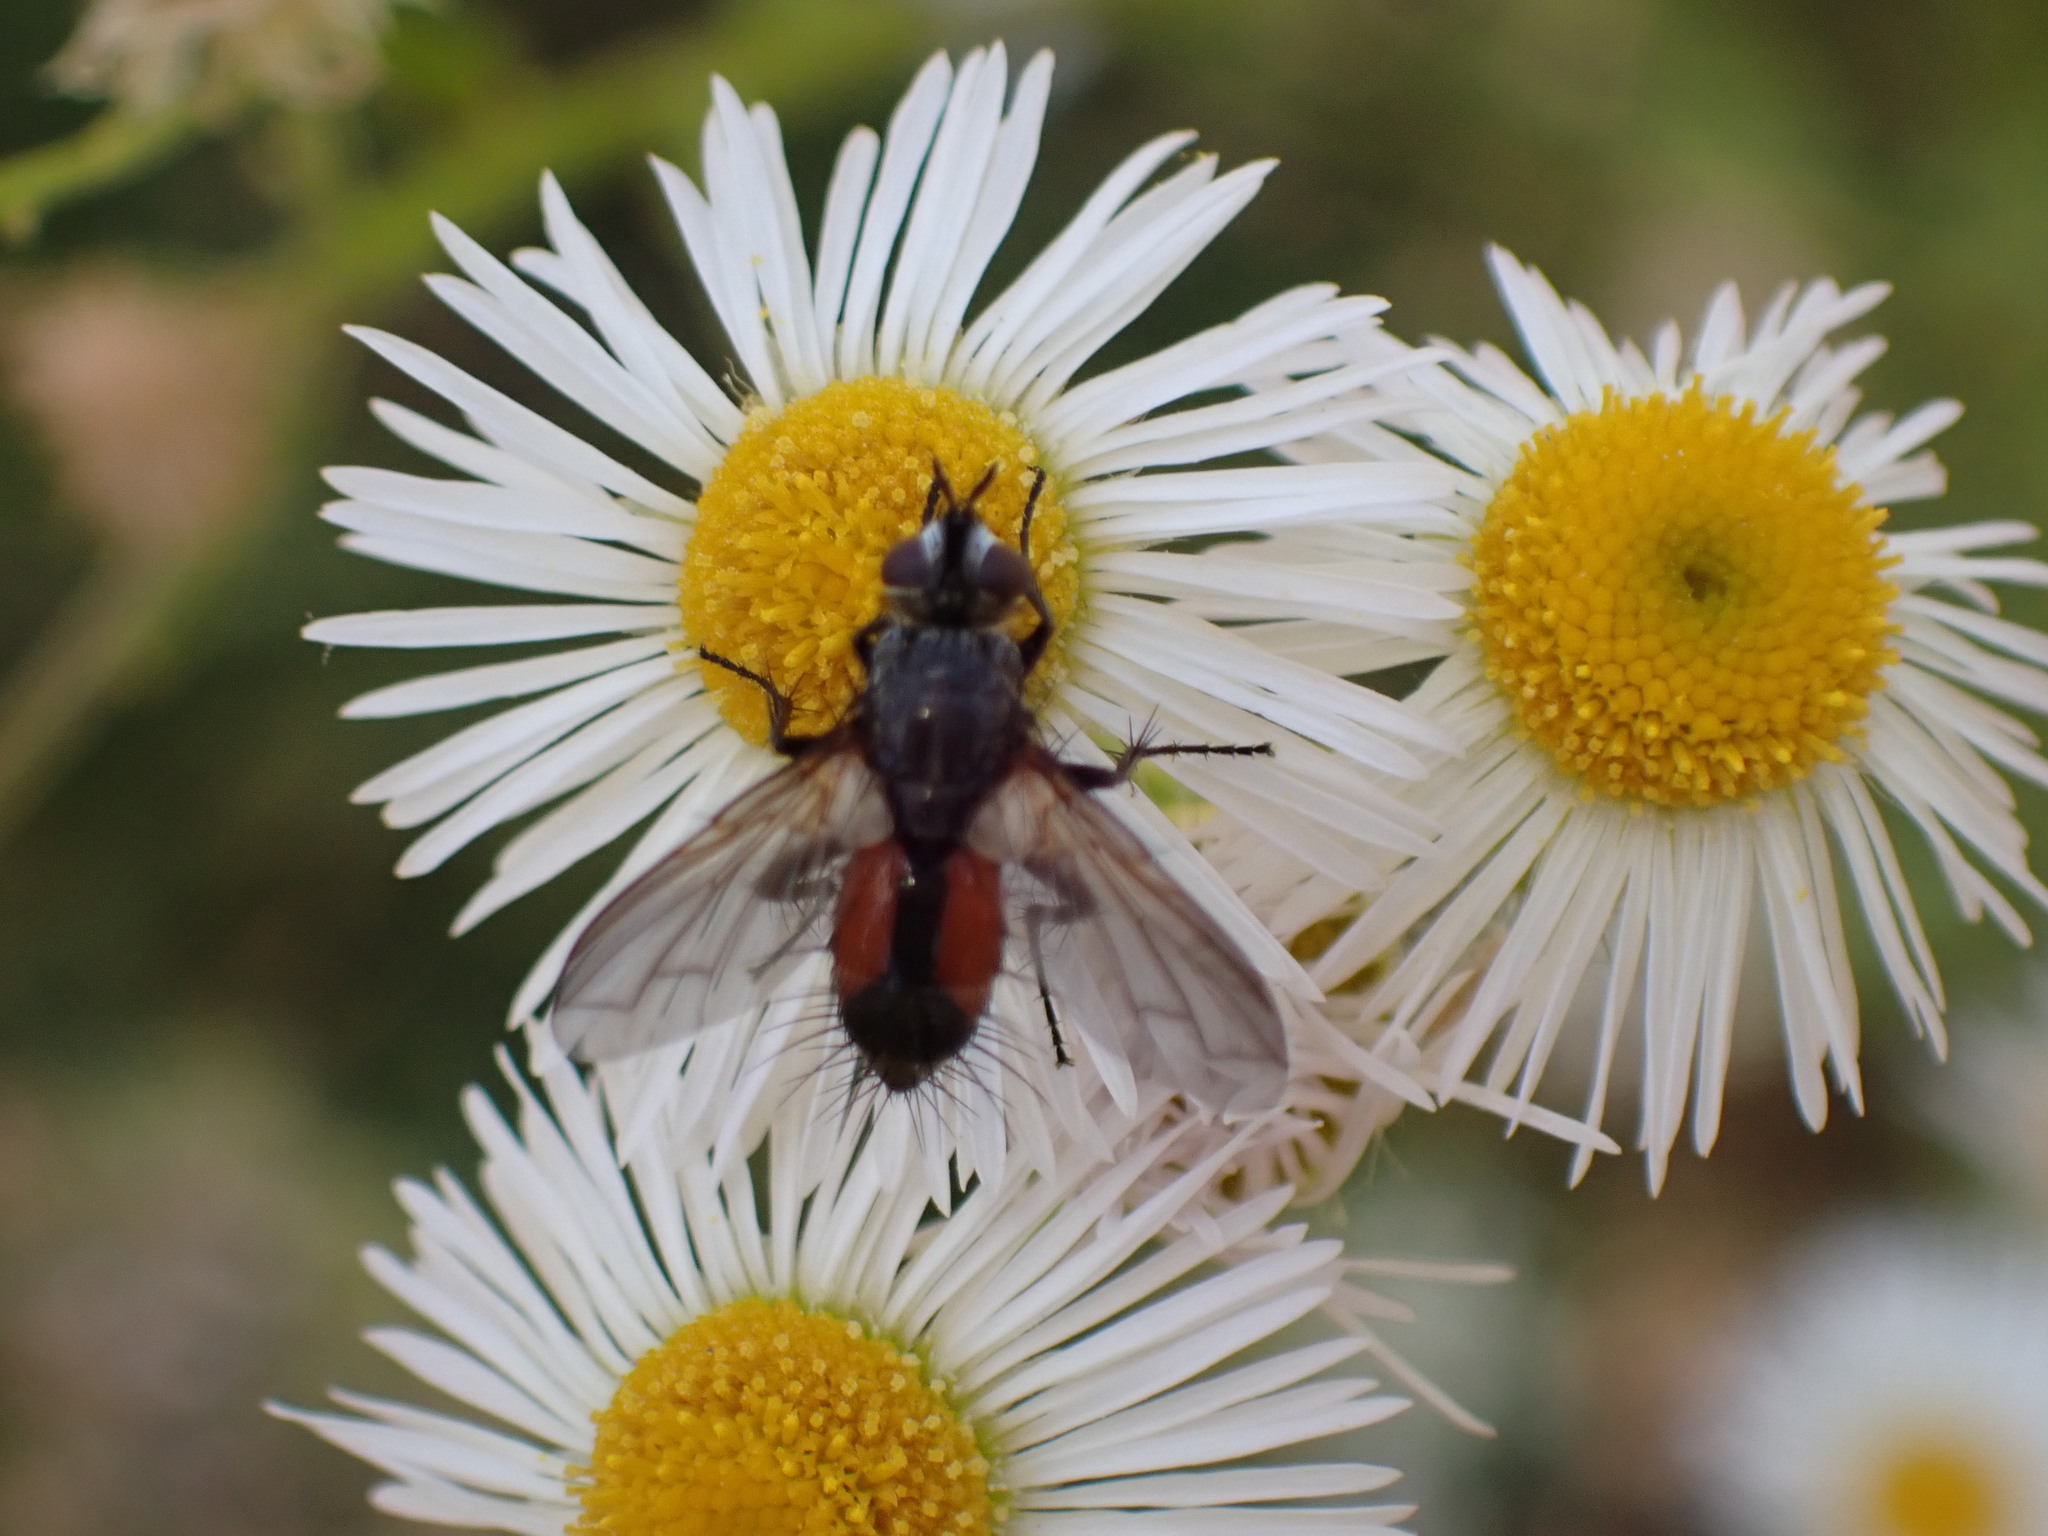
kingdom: Animalia
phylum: Arthropoda
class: Insecta
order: Diptera
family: Tachinidae
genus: Eriothrix
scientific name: Eriothrix rufomaculatus
